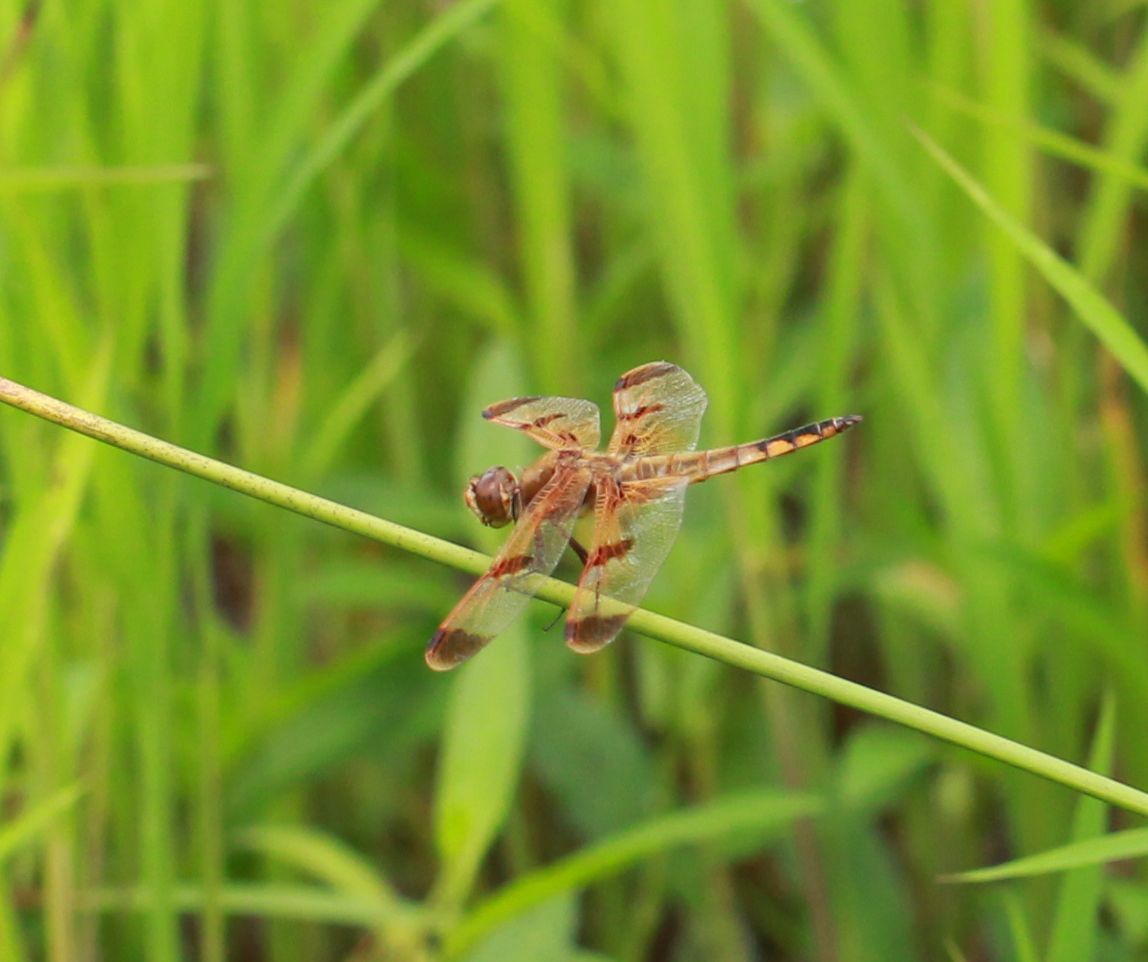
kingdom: Animalia
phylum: Arthropoda
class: Insecta
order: Odonata
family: Libellulidae
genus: Libellula
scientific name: Libellula semifasciata
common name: Painted skimmer
